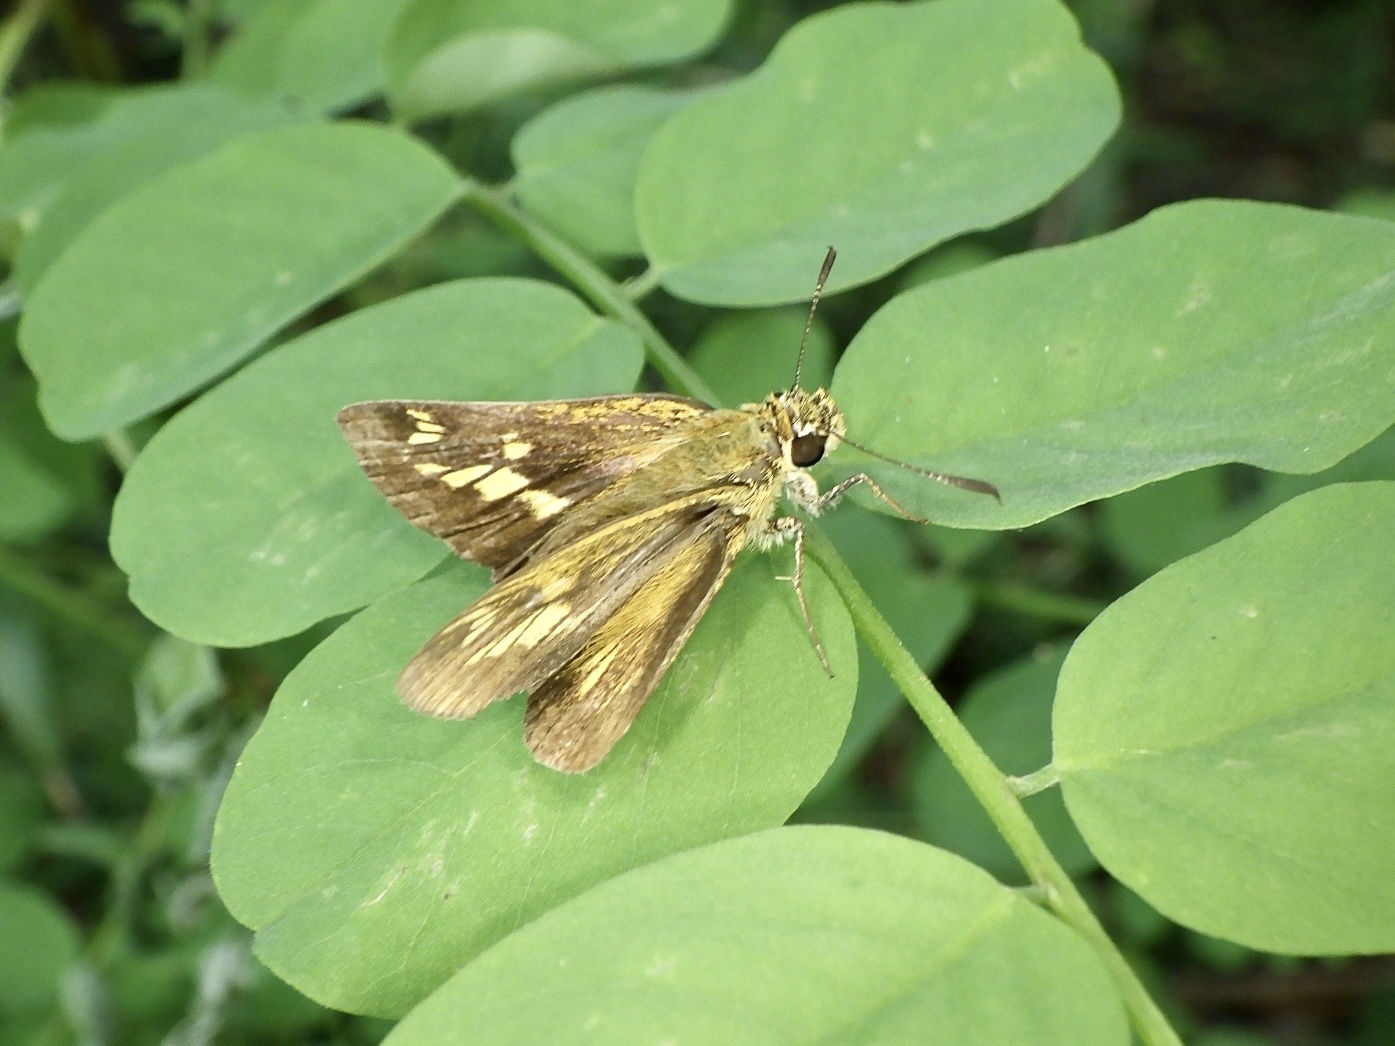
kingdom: Animalia
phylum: Arthropoda
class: Insecta
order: Lepidoptera
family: Hesperiidae
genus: Potanthus
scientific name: Potanthus flava
